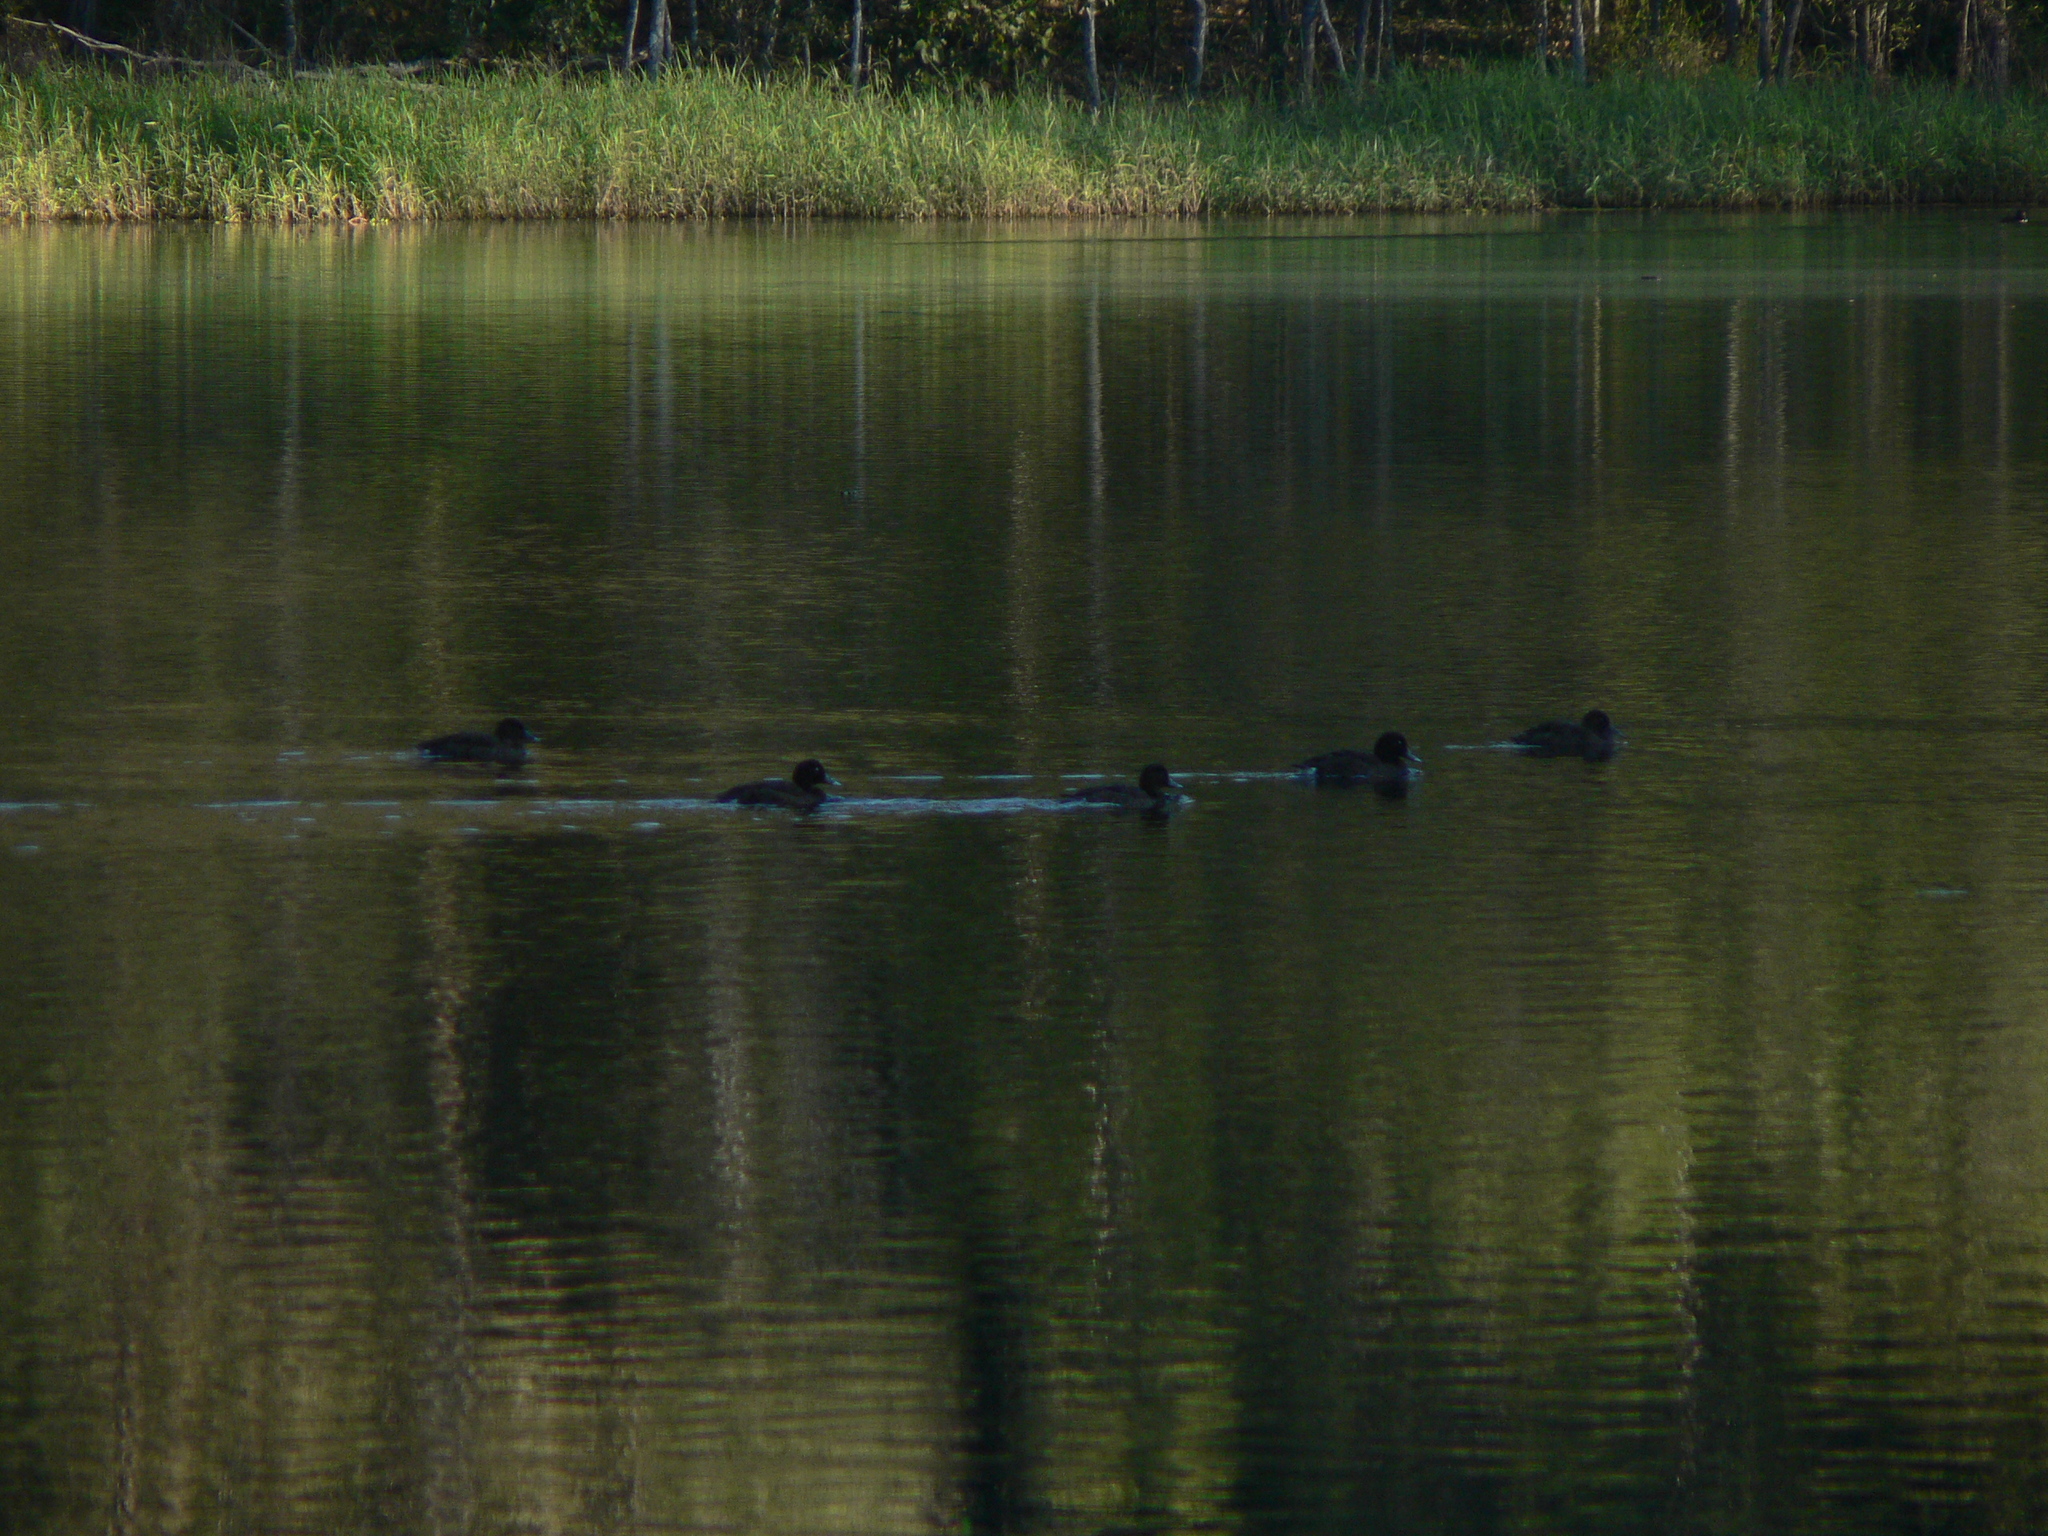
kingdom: Animalia
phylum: Chordata
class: Aves
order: Anseriformes
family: Anatidae
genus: Aythya
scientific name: Aythya australis
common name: Hardhead
